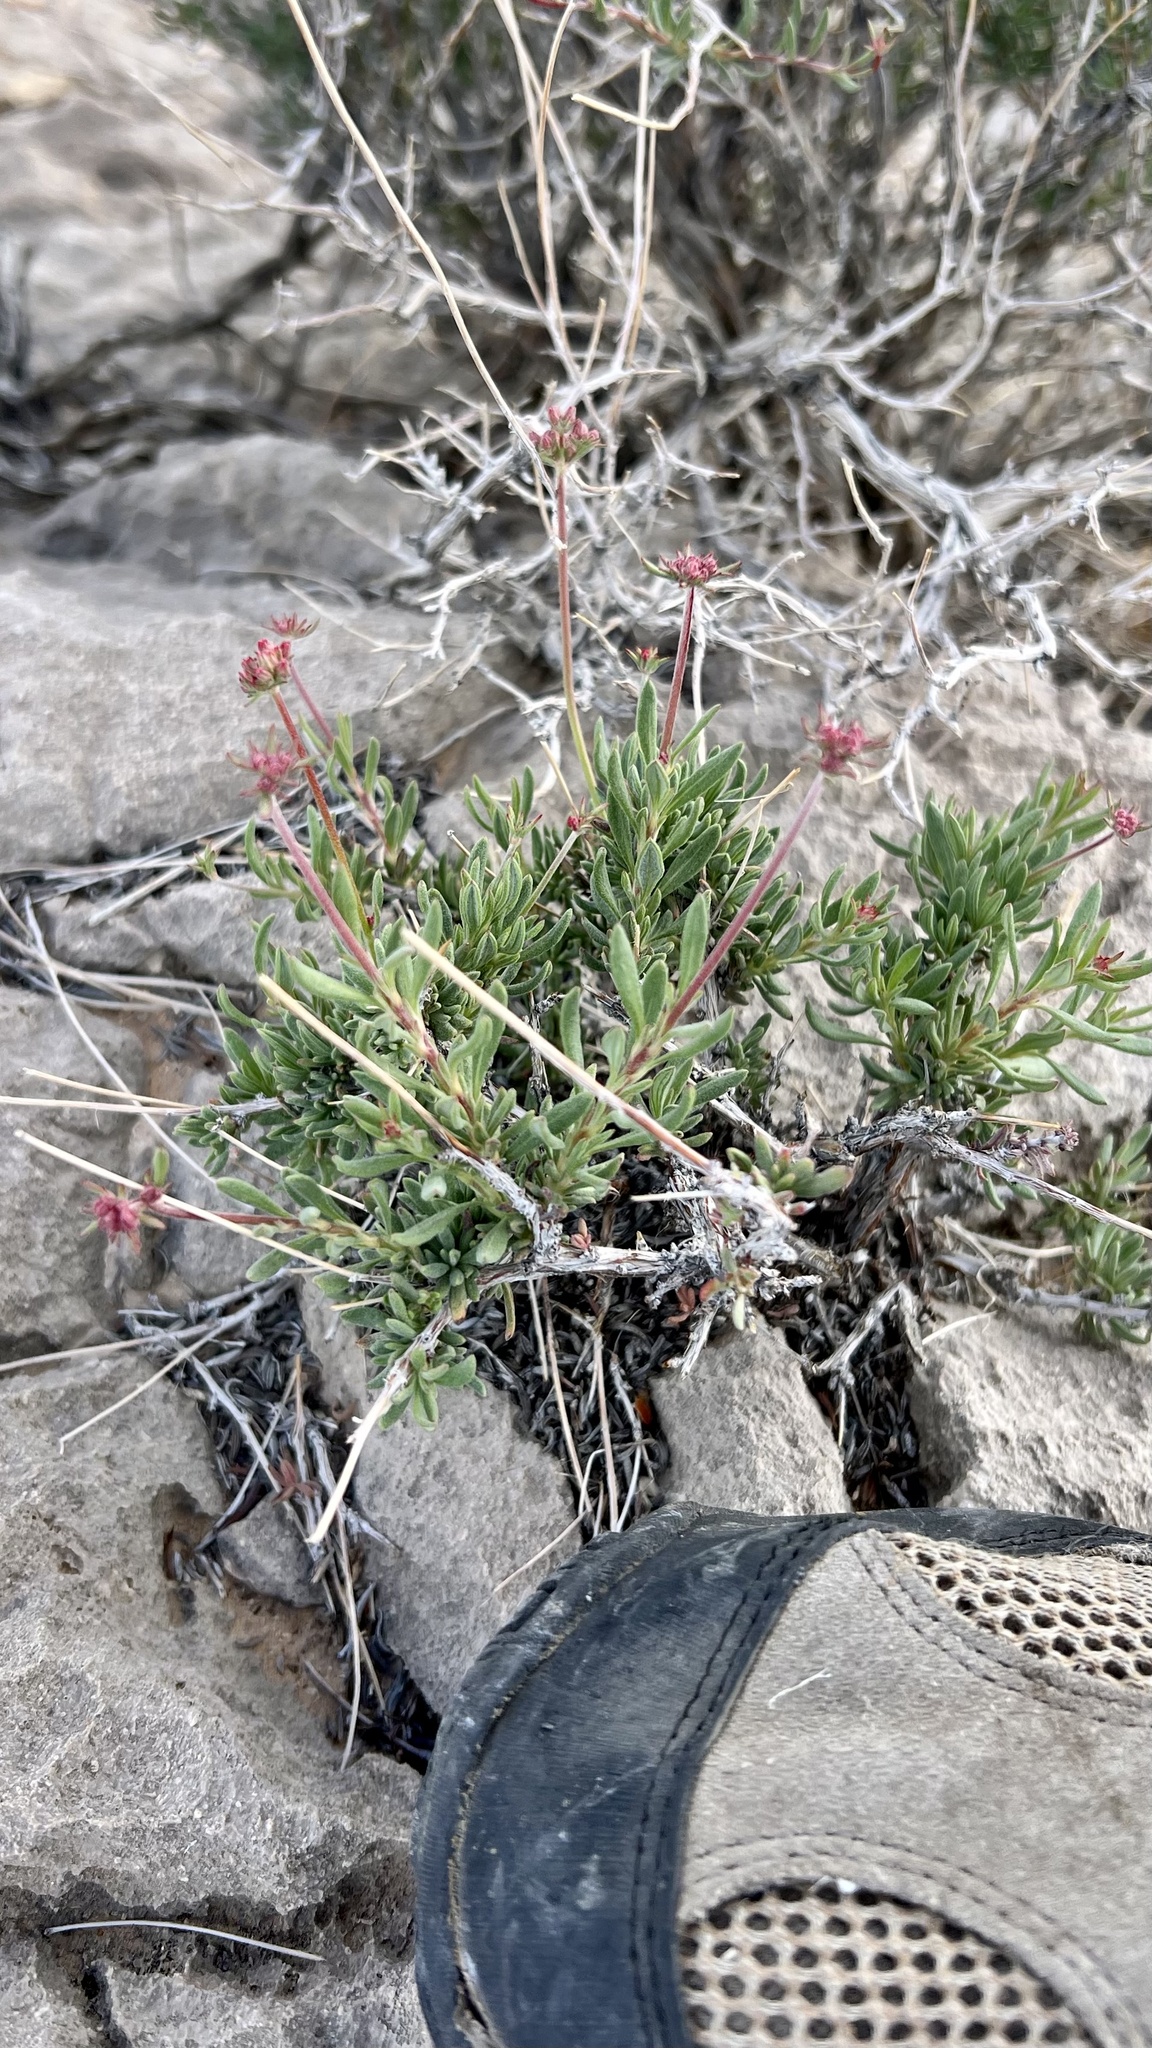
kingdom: Plantae
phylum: Tracheophyta
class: Magnoliopsida
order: Caryophyllales
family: Polygonaceae
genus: Eriogonum
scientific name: Eriogonum fasciculatum
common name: California wild buckwheat
